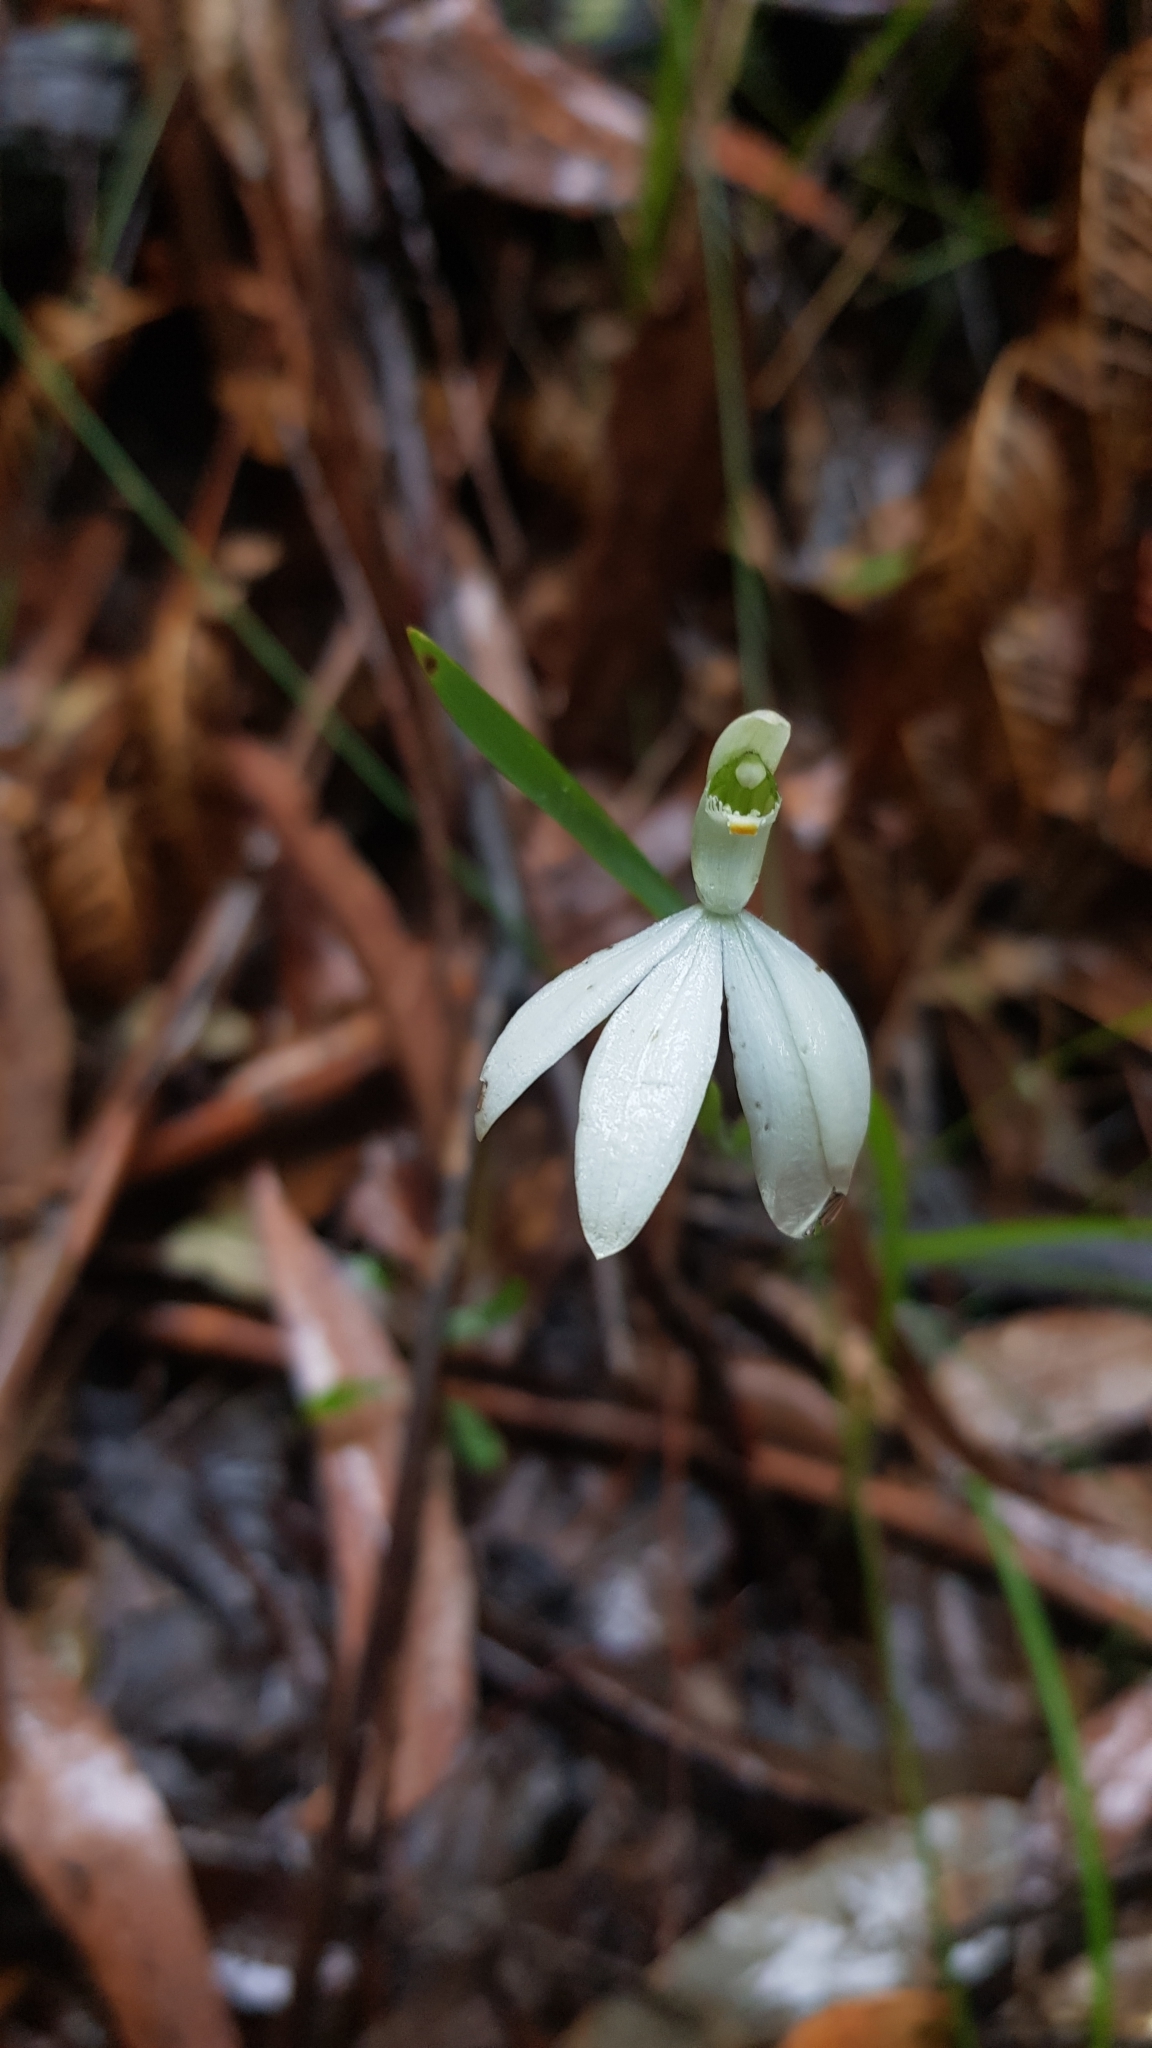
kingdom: Plantae
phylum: Tracheophyta
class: Liliopsida
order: Asparagales
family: Orchidaceae
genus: Caladenia
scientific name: Caladenia catenata
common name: White caladenia
